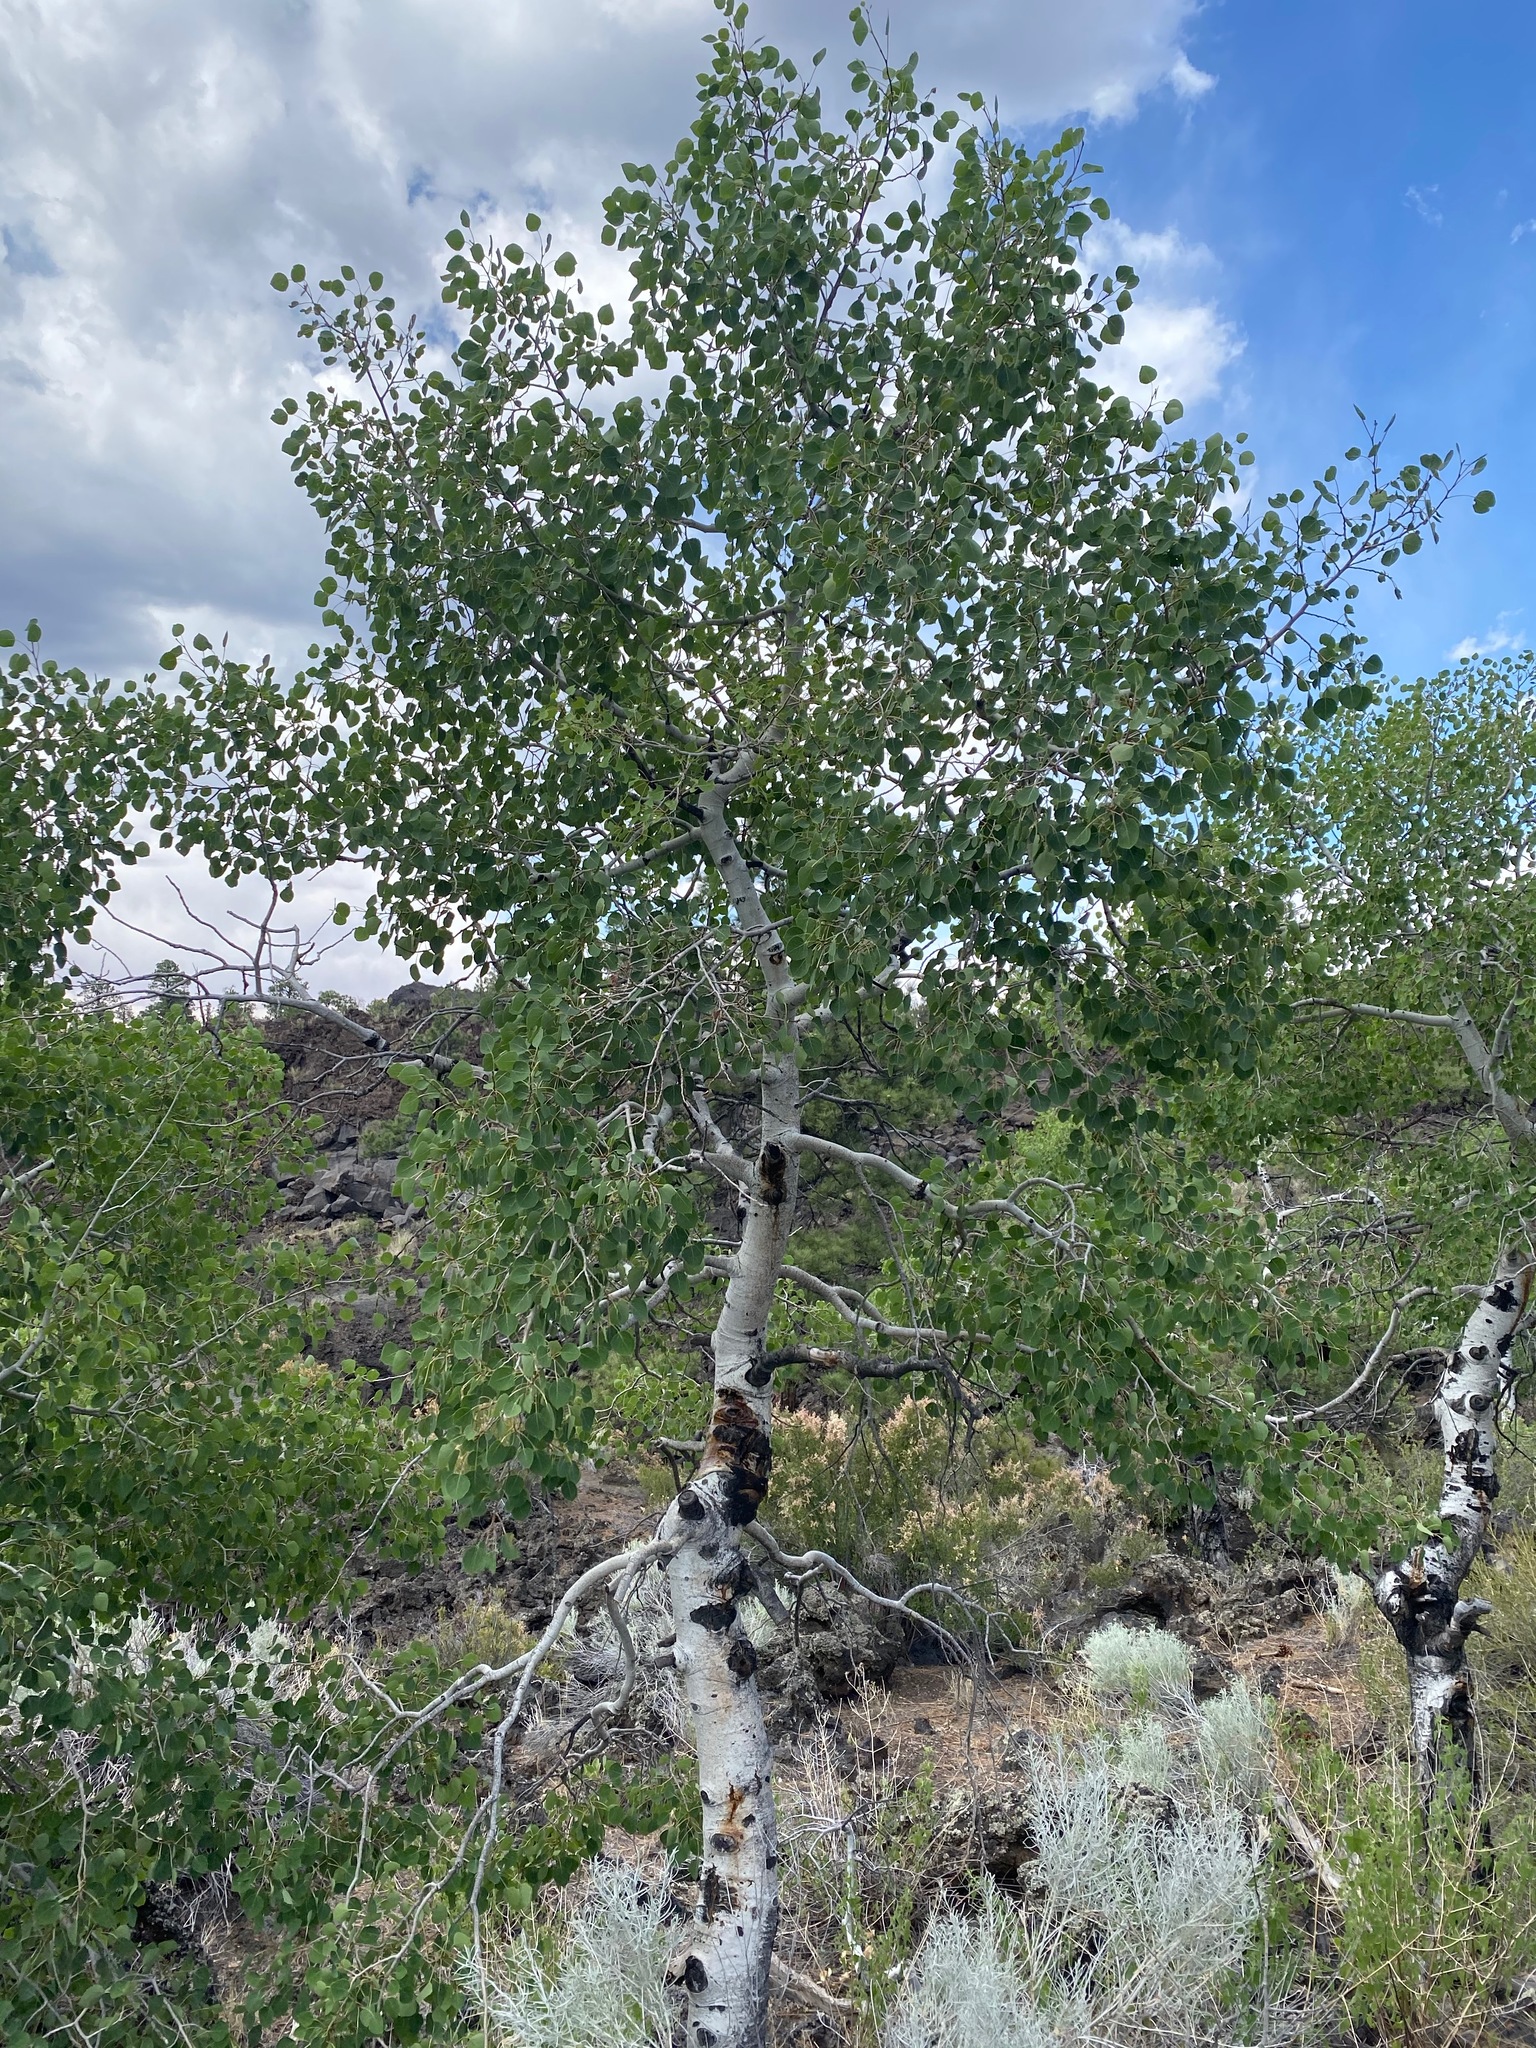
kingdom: Plantae
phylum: Tracheophyta
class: Magnoliopsida
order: Malpighiales
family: Salicaceae
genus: Populus
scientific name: Populus tremuloides
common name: Quaking aspen
